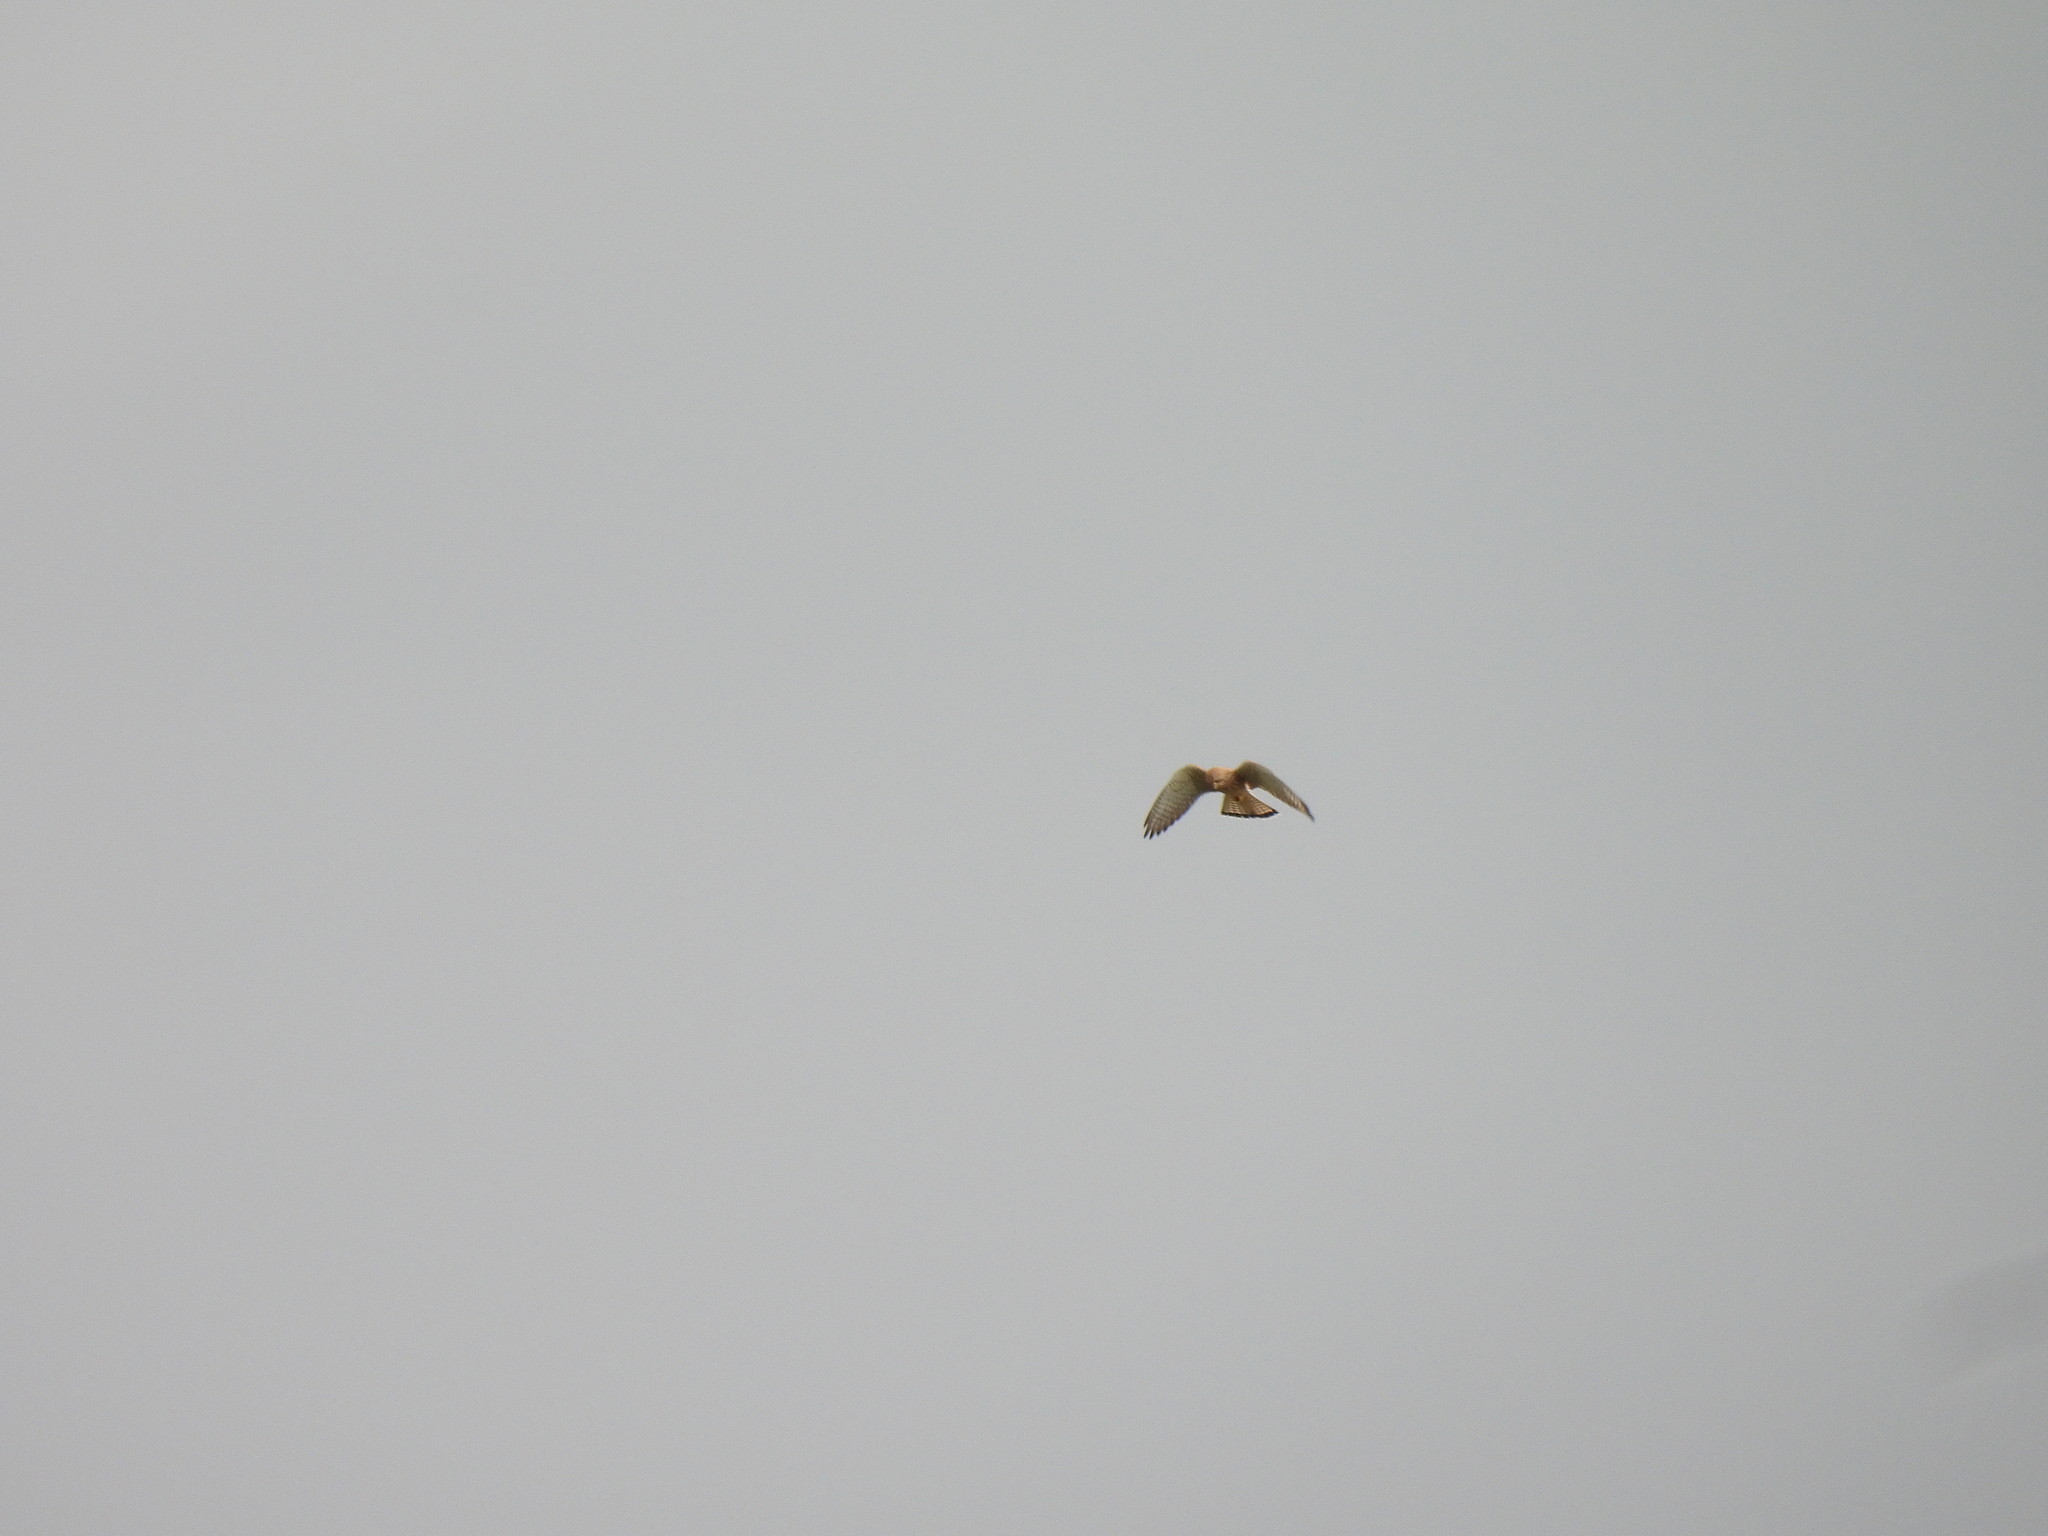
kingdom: Animalia
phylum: Chordata
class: Aves
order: Falconiformes
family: Falconidae
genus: Falco
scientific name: Falco tinnunculus
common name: Common kestrel
